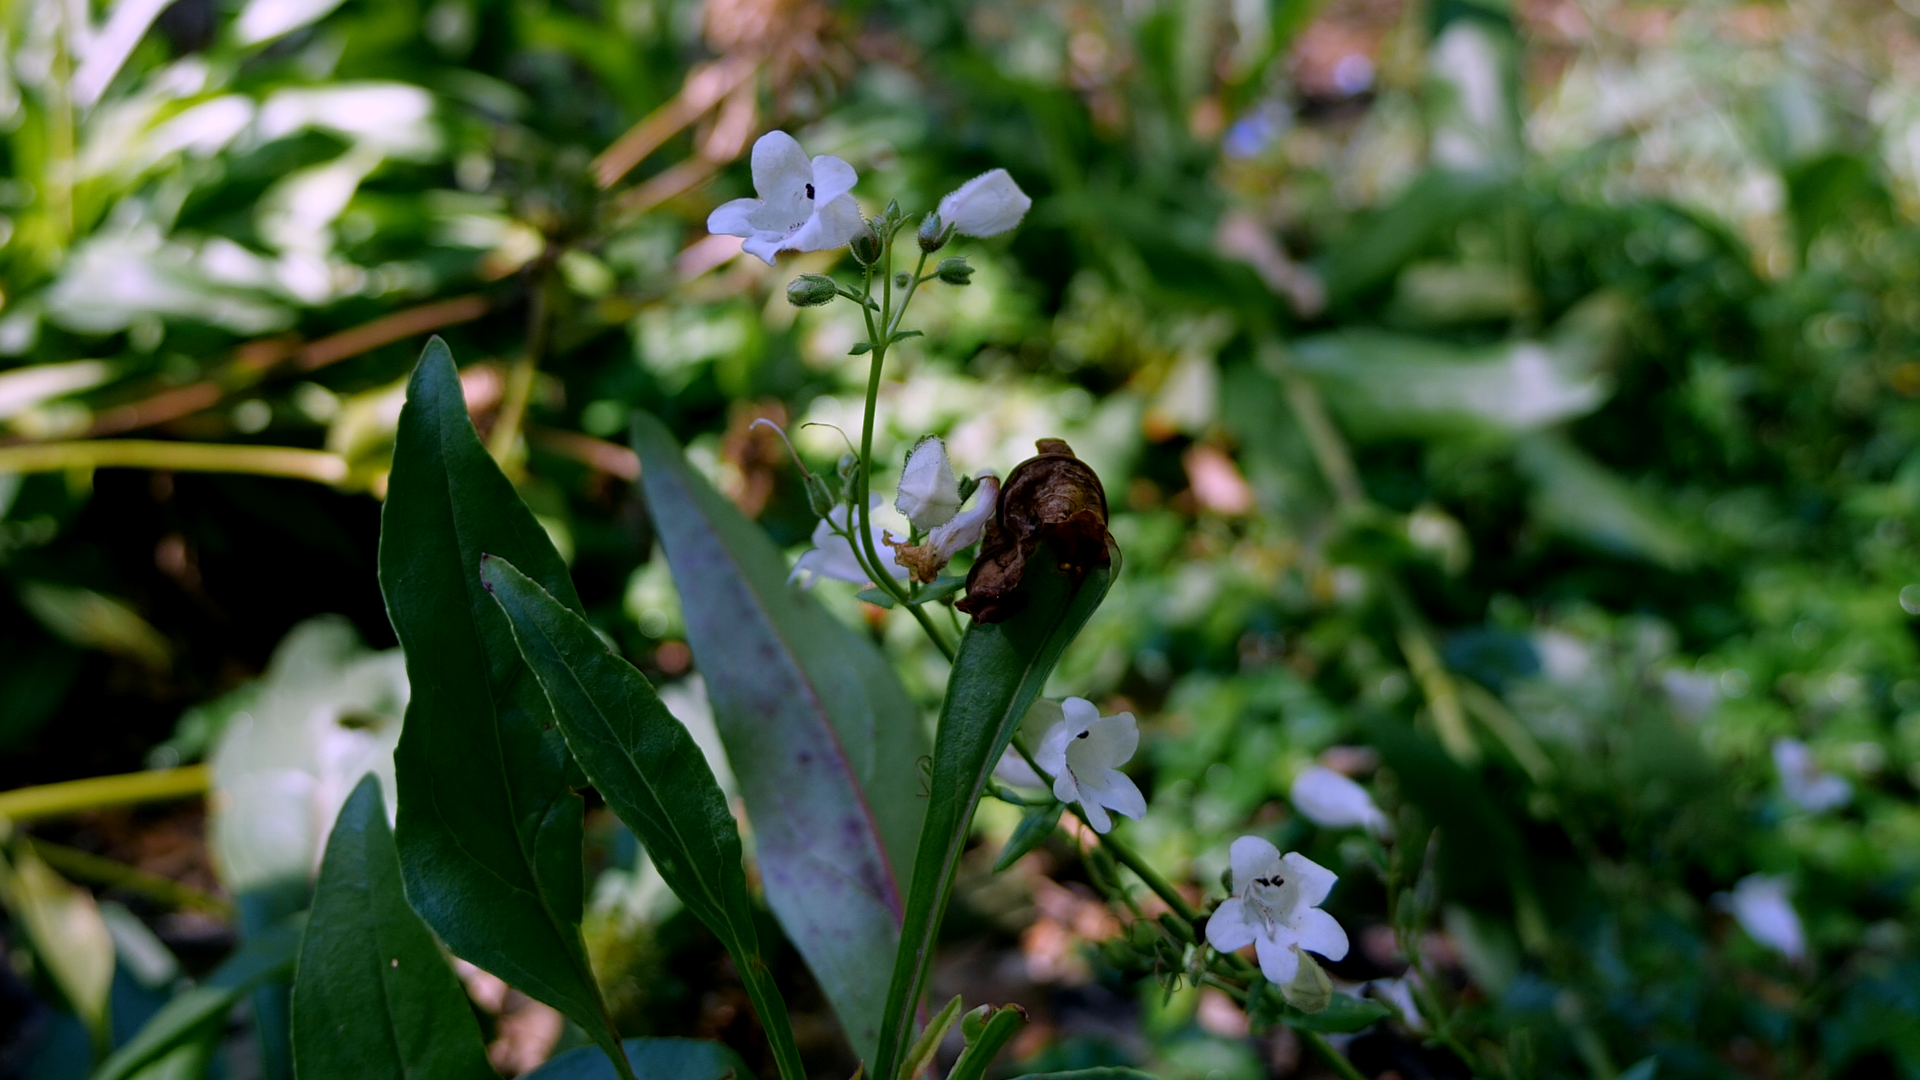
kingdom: Plantae
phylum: Tracheophyta
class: Magnoliopsida
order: Lamiales
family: Plantaginaceae
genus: Penstemon
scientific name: Penstemon multiflorus
